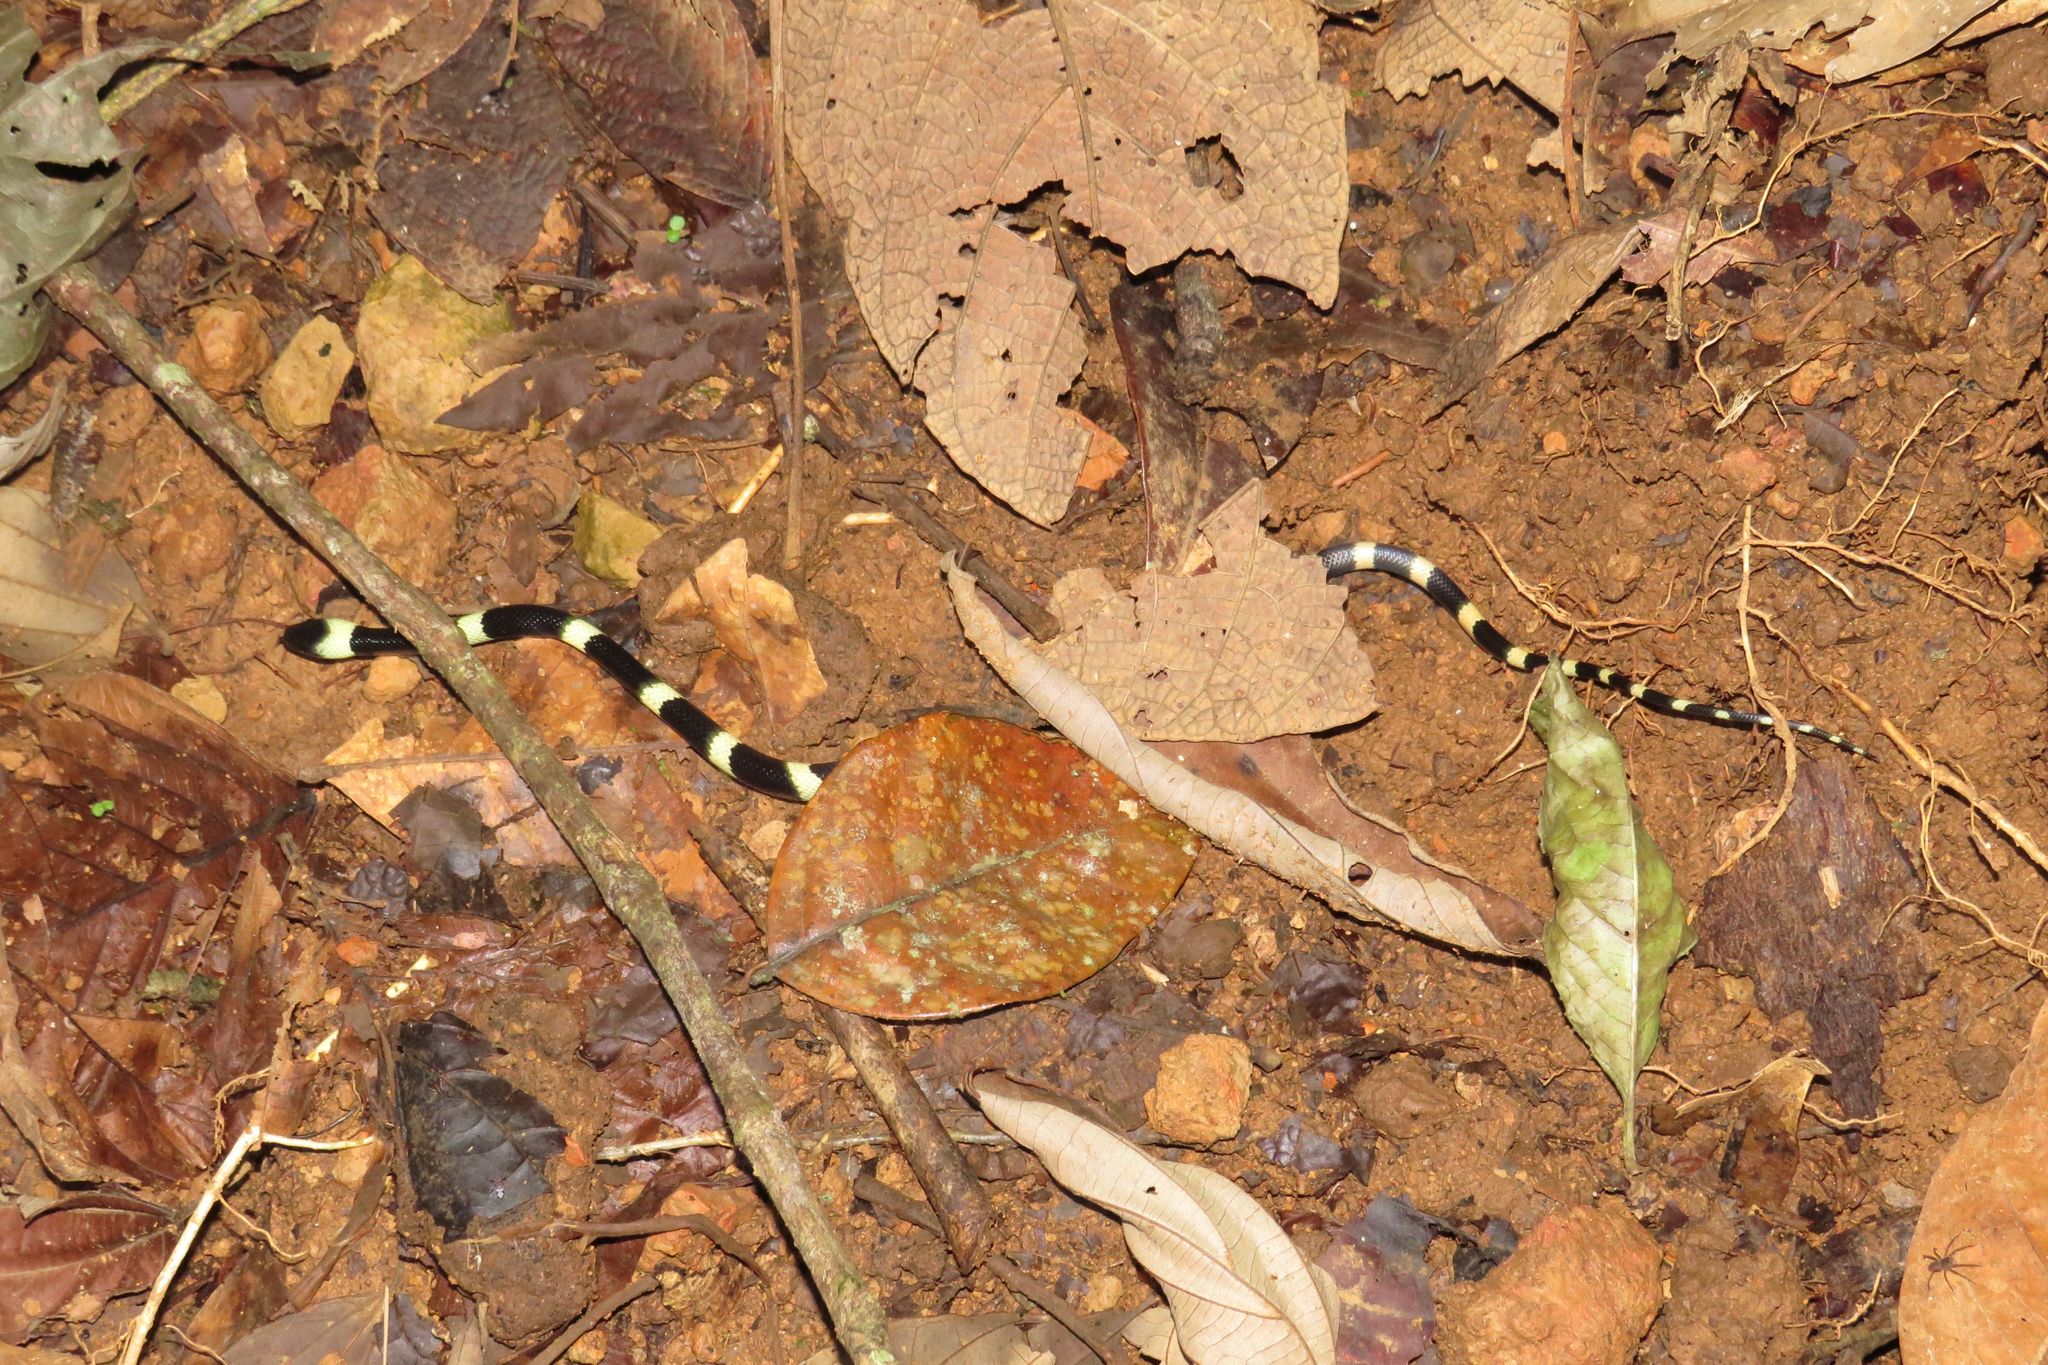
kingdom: Animalia
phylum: Chordata
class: Squamata
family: Colubridae
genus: Oxyrhopus
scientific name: Oxyrhopus petolarius
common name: Forest flame snake
